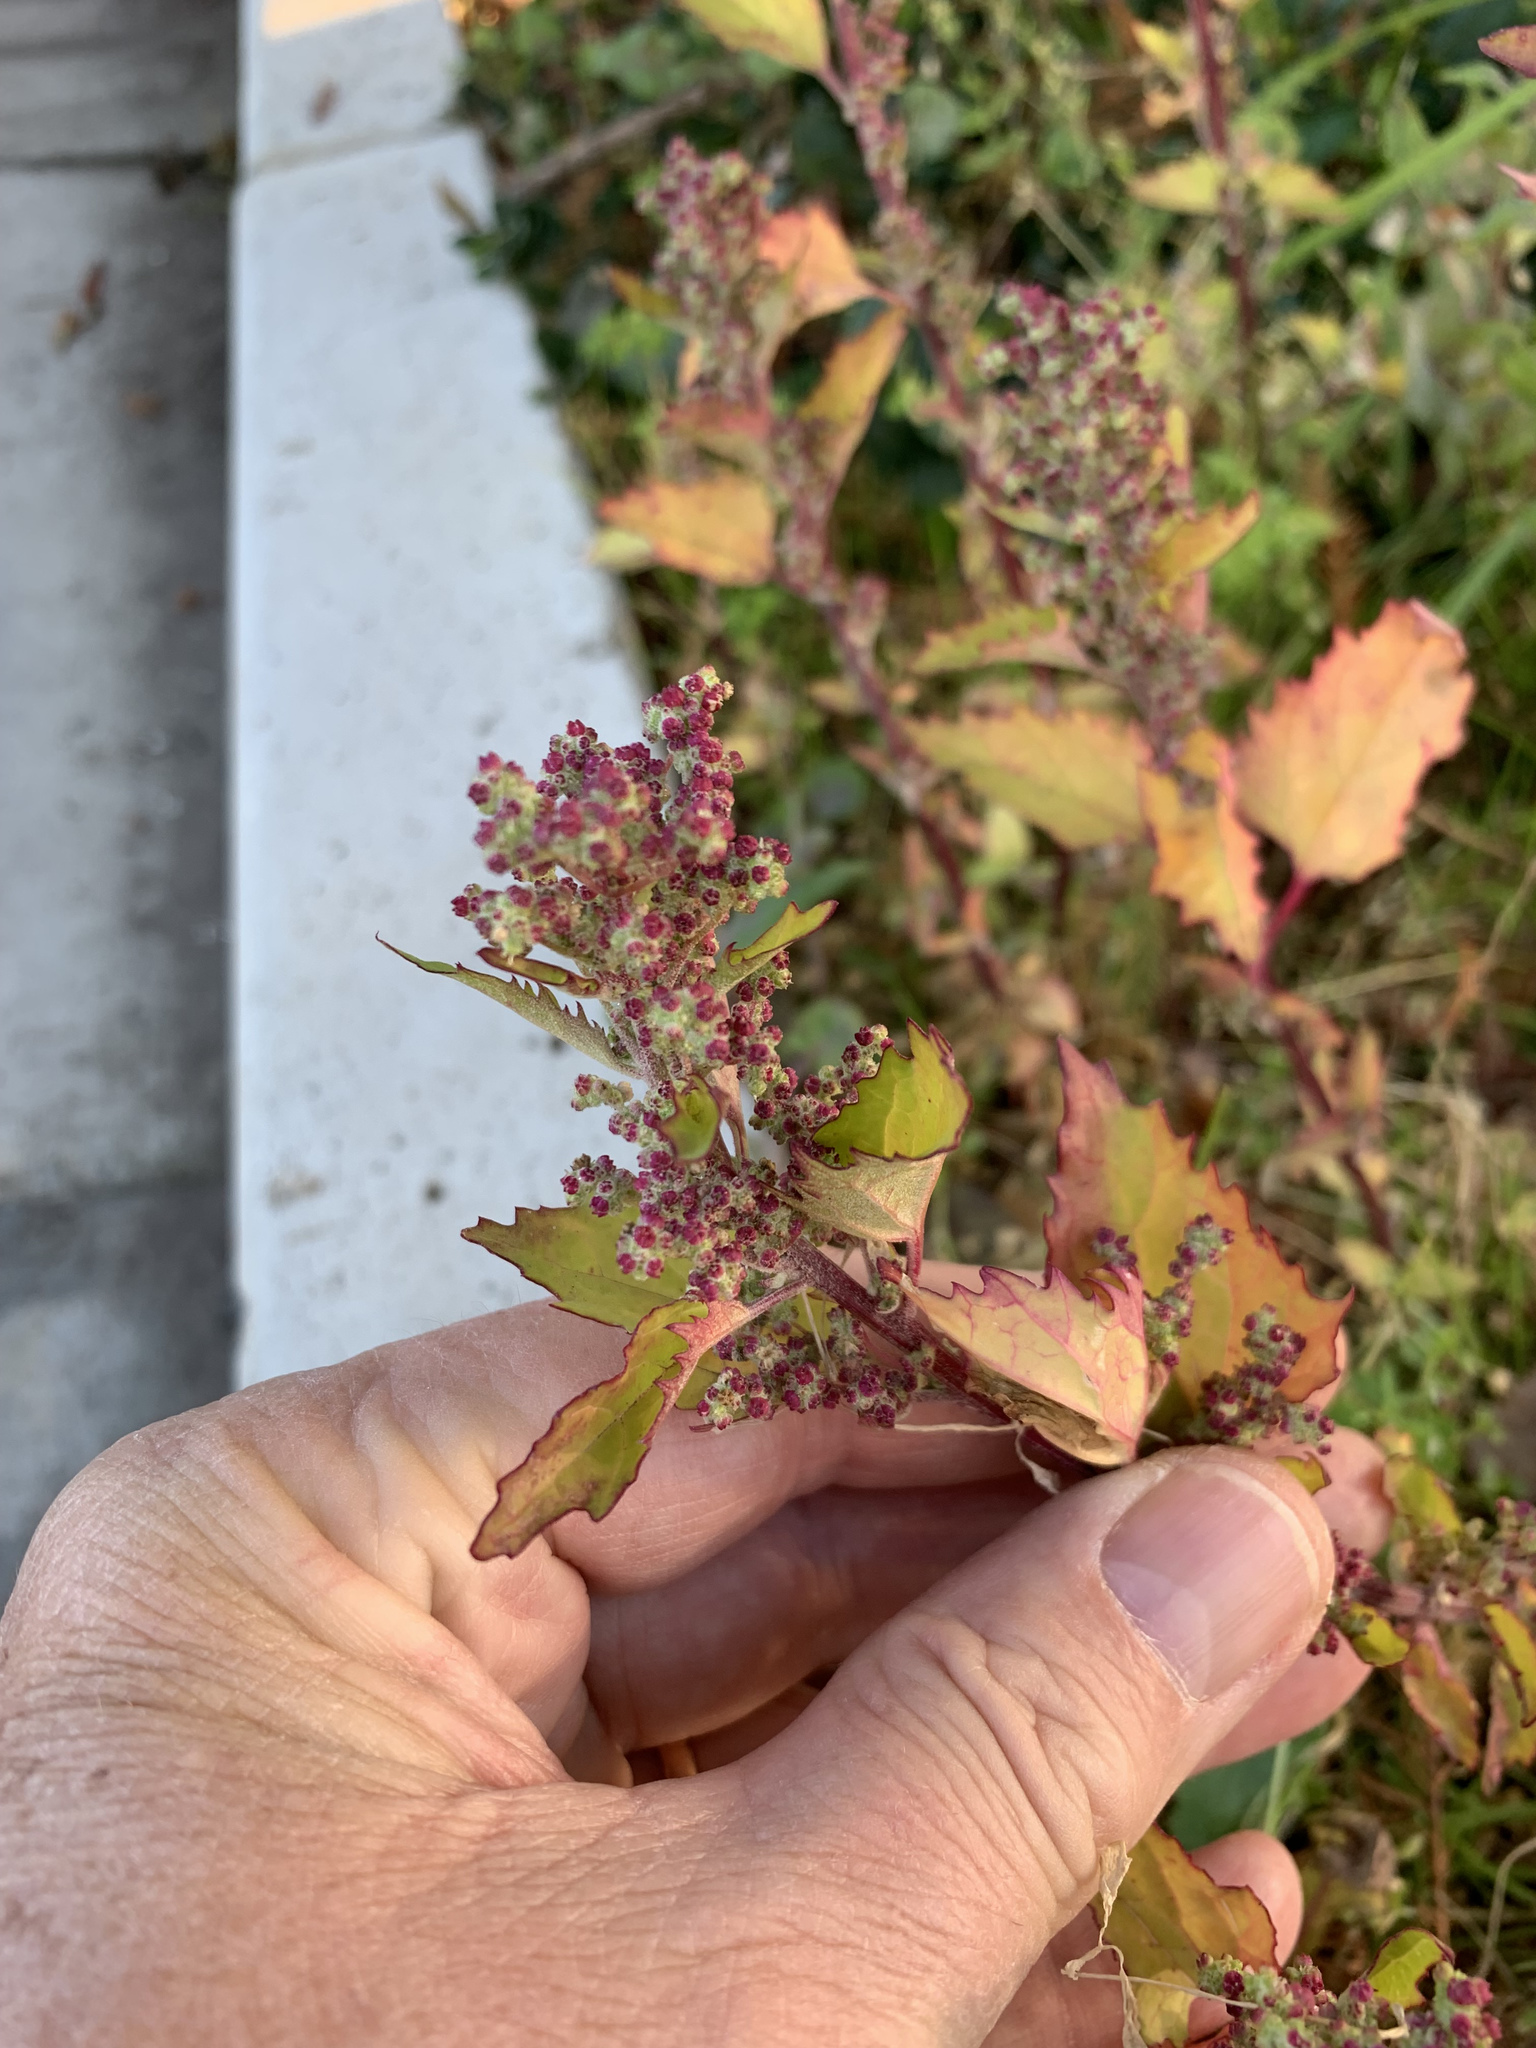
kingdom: Plantae
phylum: Tracheophyta
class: Magnoliopsida
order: Caryophyllales
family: Amaranthaceae
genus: Chenopodiastrum
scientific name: Chenopodiastrum murale
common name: Sowbane
